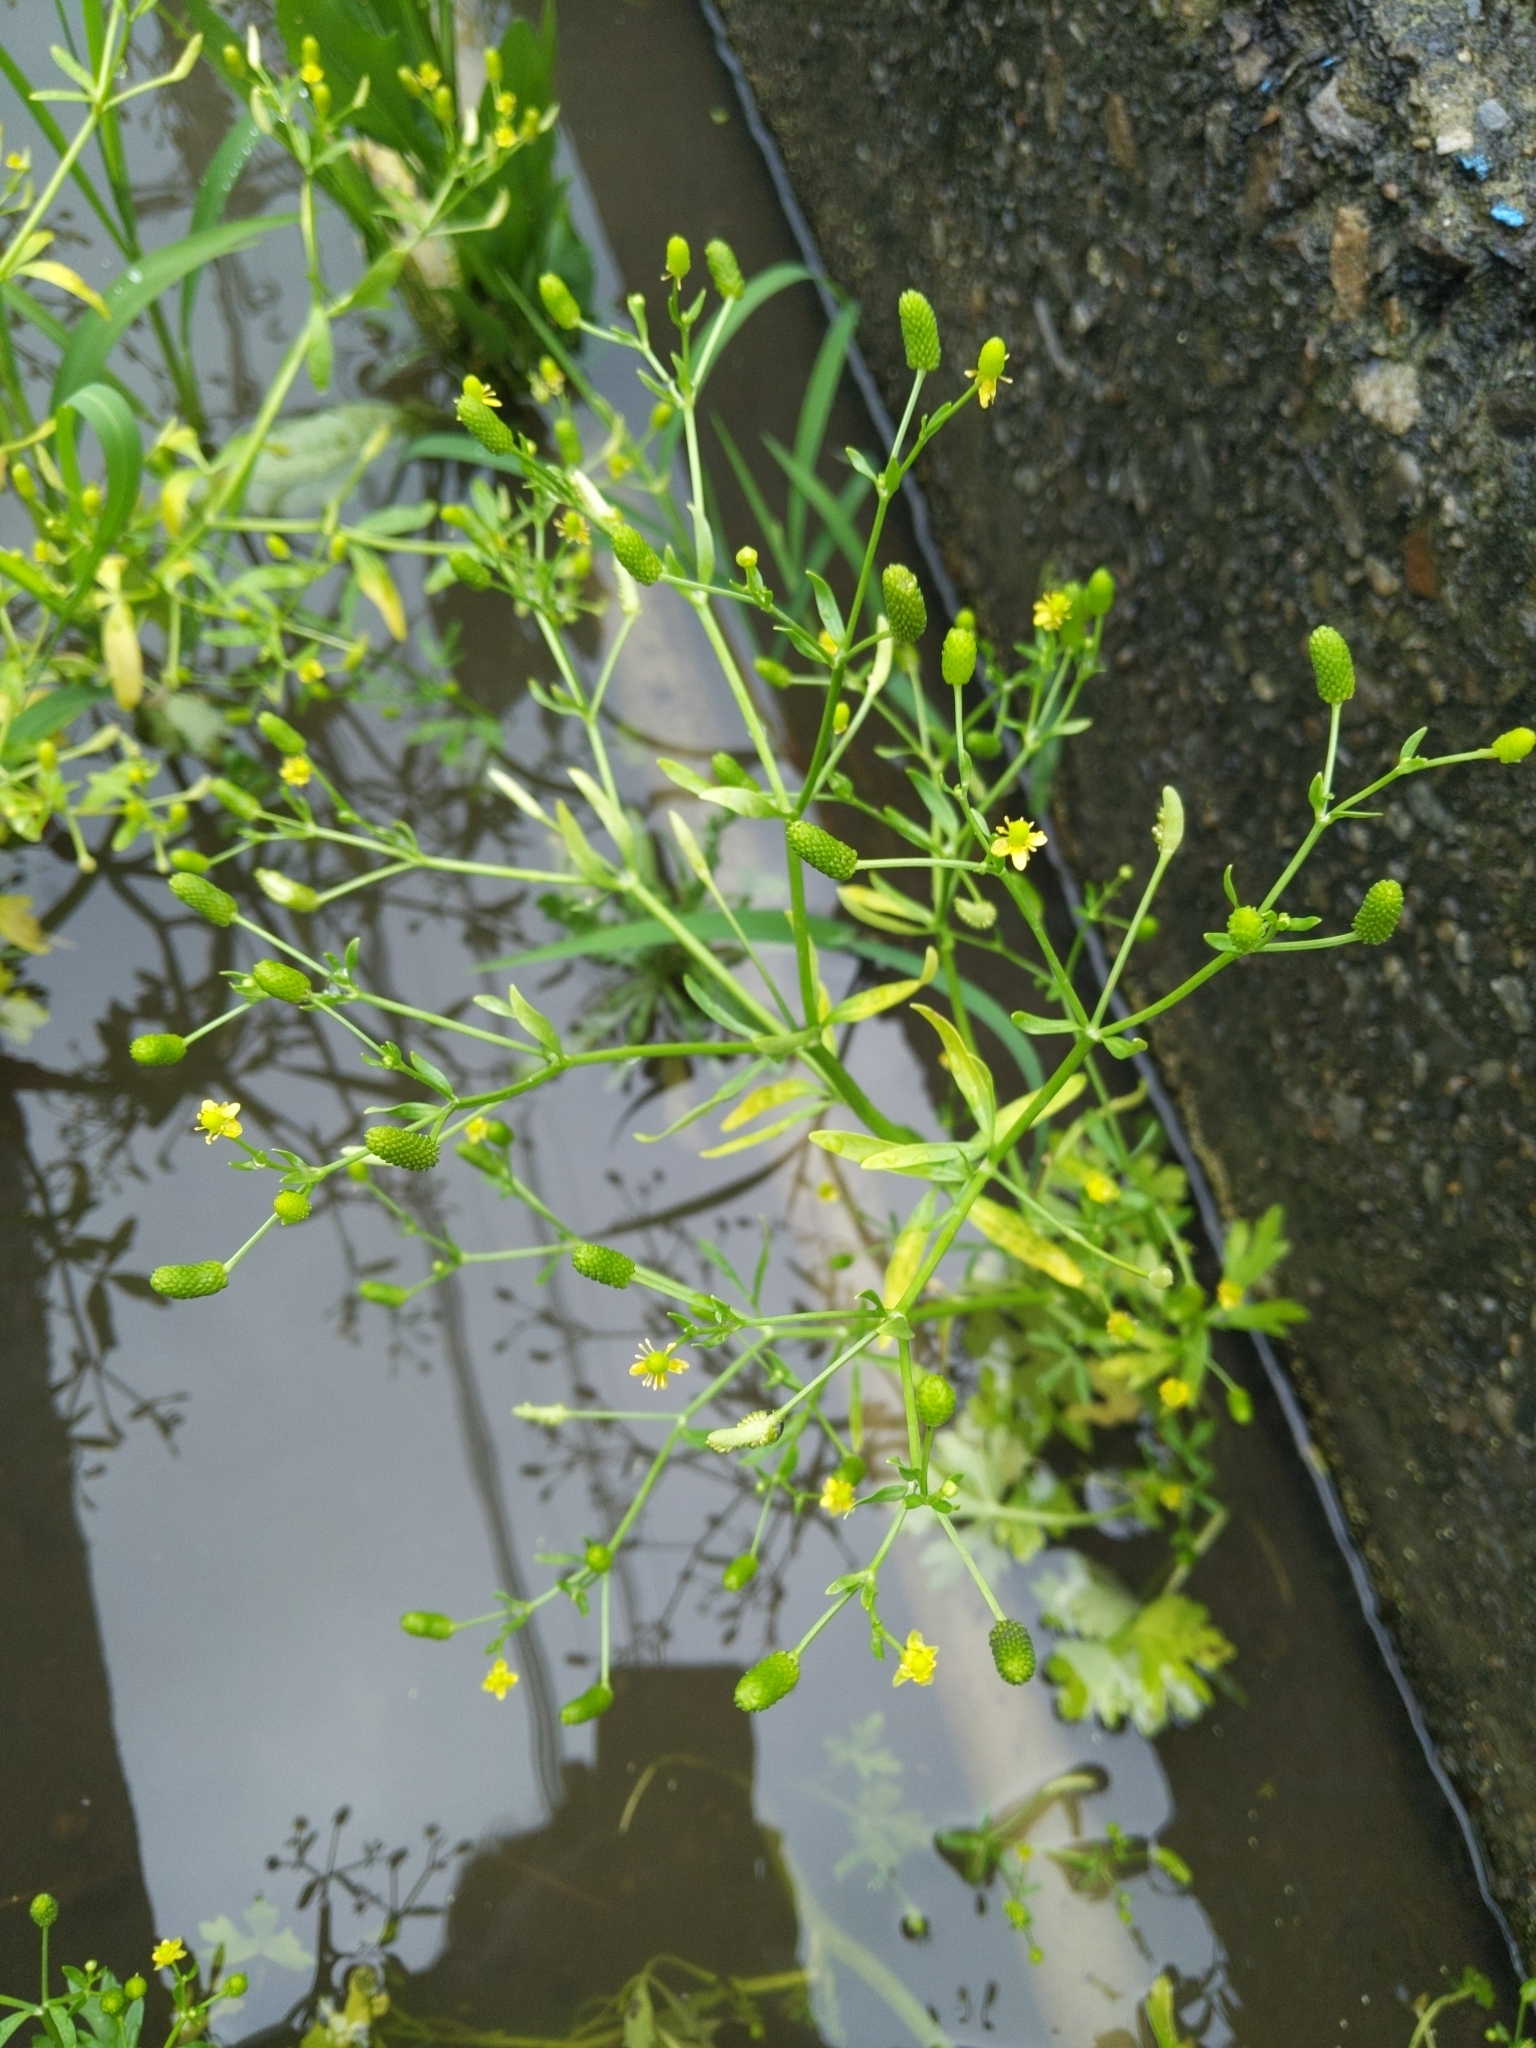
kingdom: Plantae
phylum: Tracheophyta
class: Magnoliopsida
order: Ranunculales
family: Ranunculaceae
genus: Ranunculus
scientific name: Ranunculus sceleratus
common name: Celery-leaved buttercup
